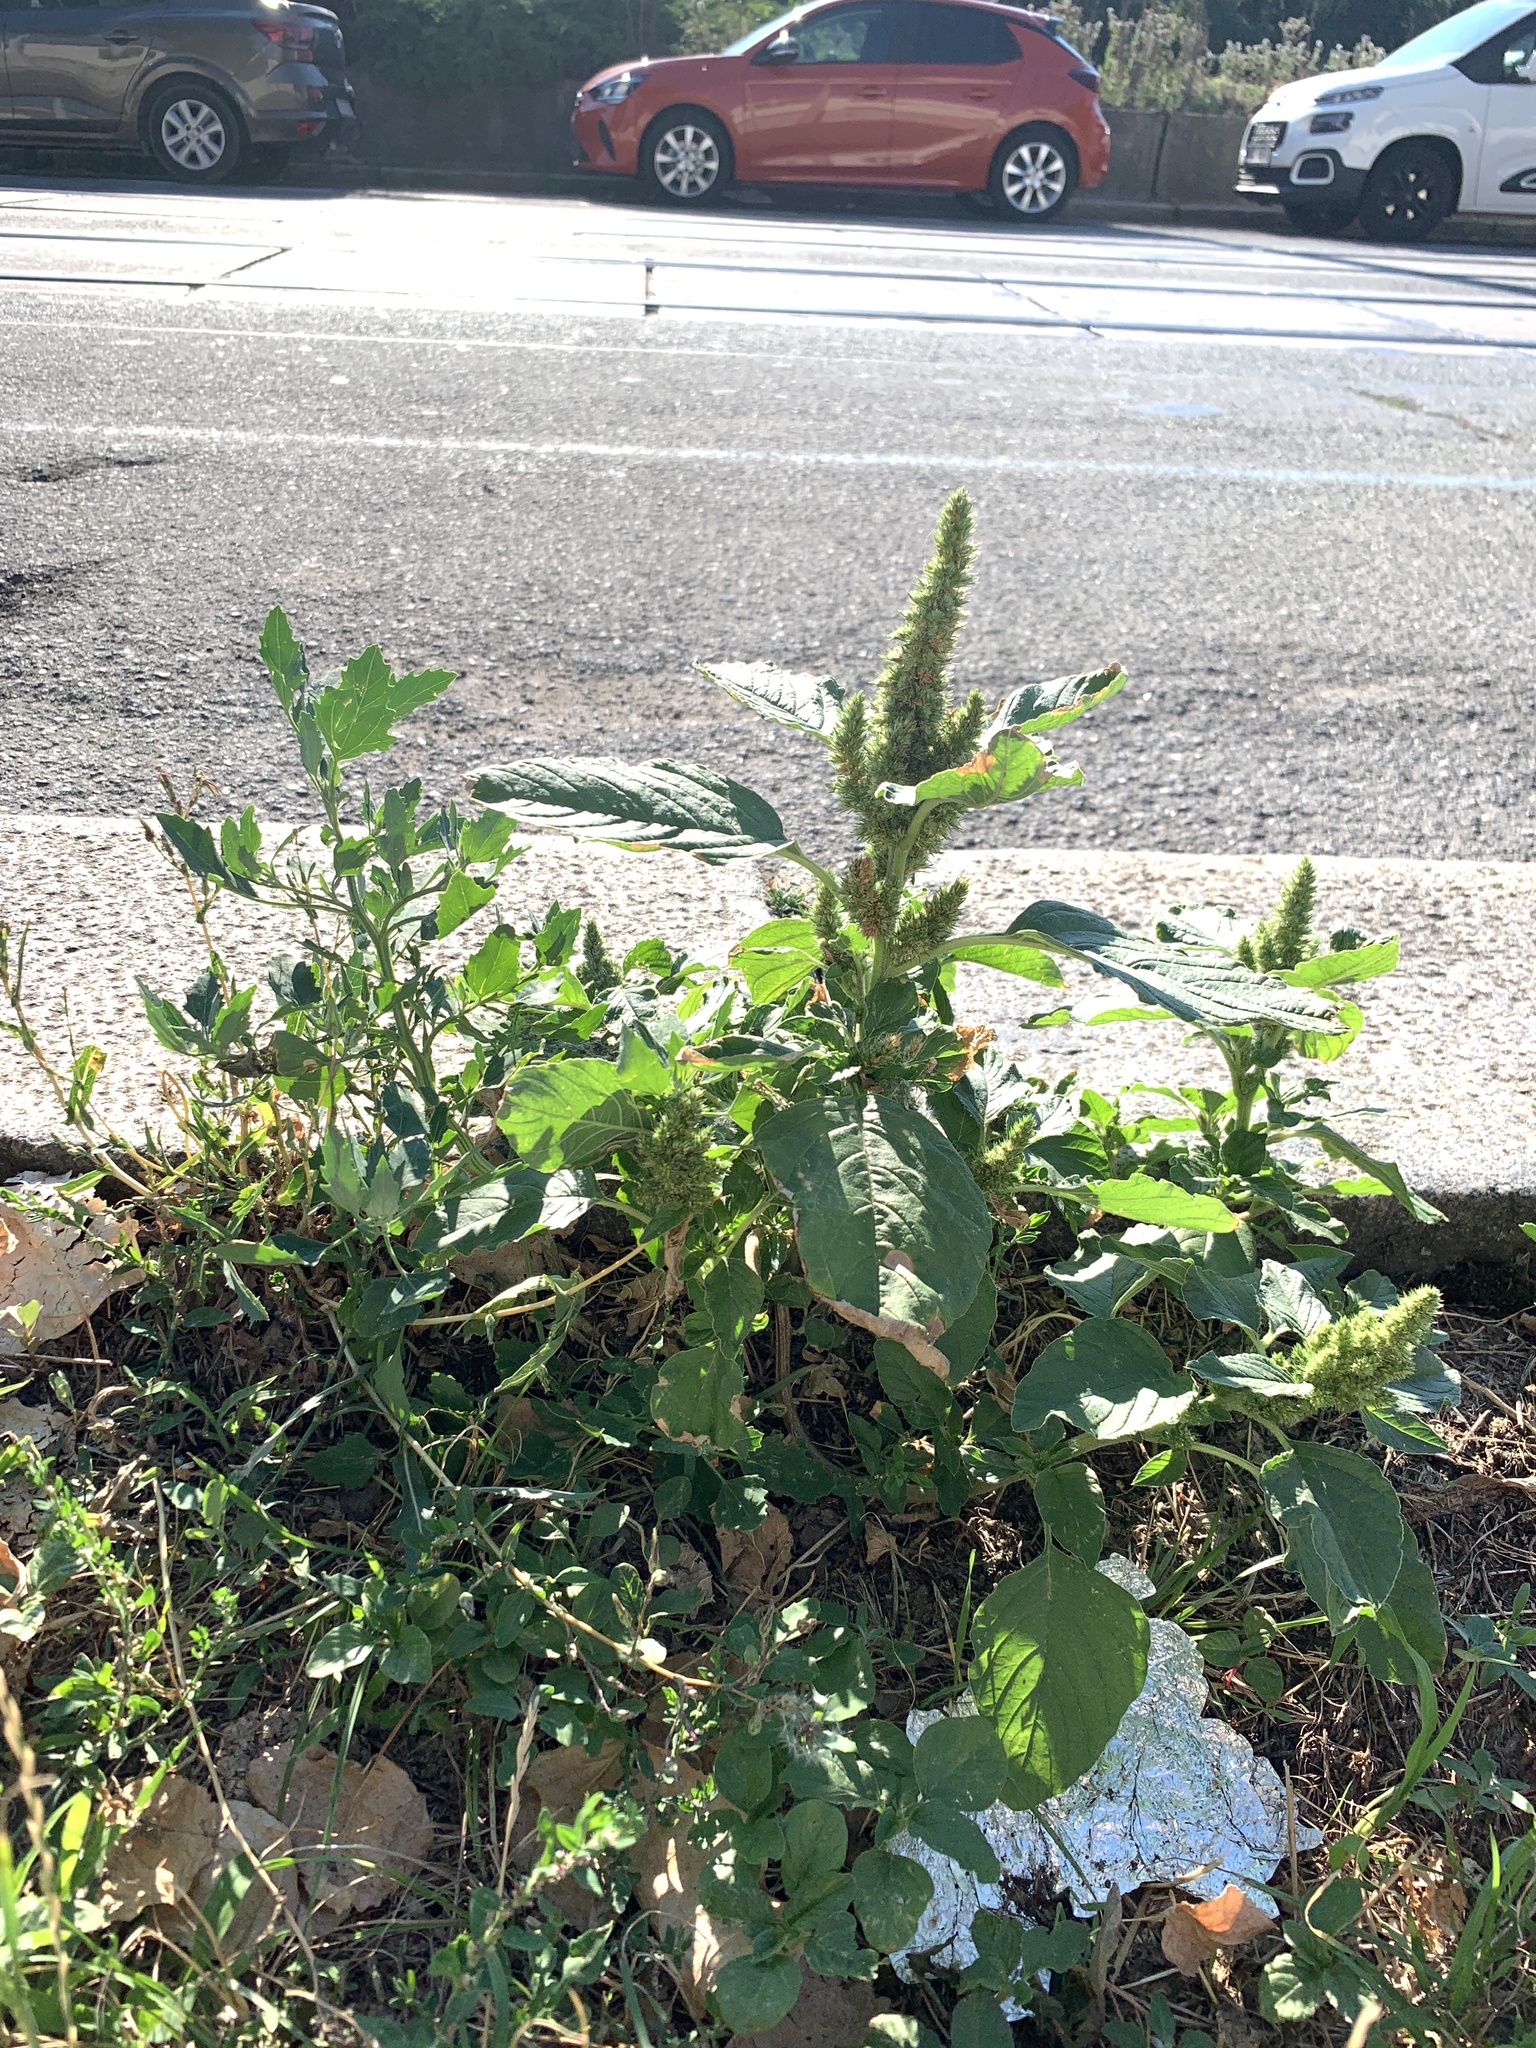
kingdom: Plantae
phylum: Tracheophyta
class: Magnoliopsida
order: Caryophyllales
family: Amaranthaceae
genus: Amaranthus
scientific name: Amaranthus retroflexus
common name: Redroot amaranth
